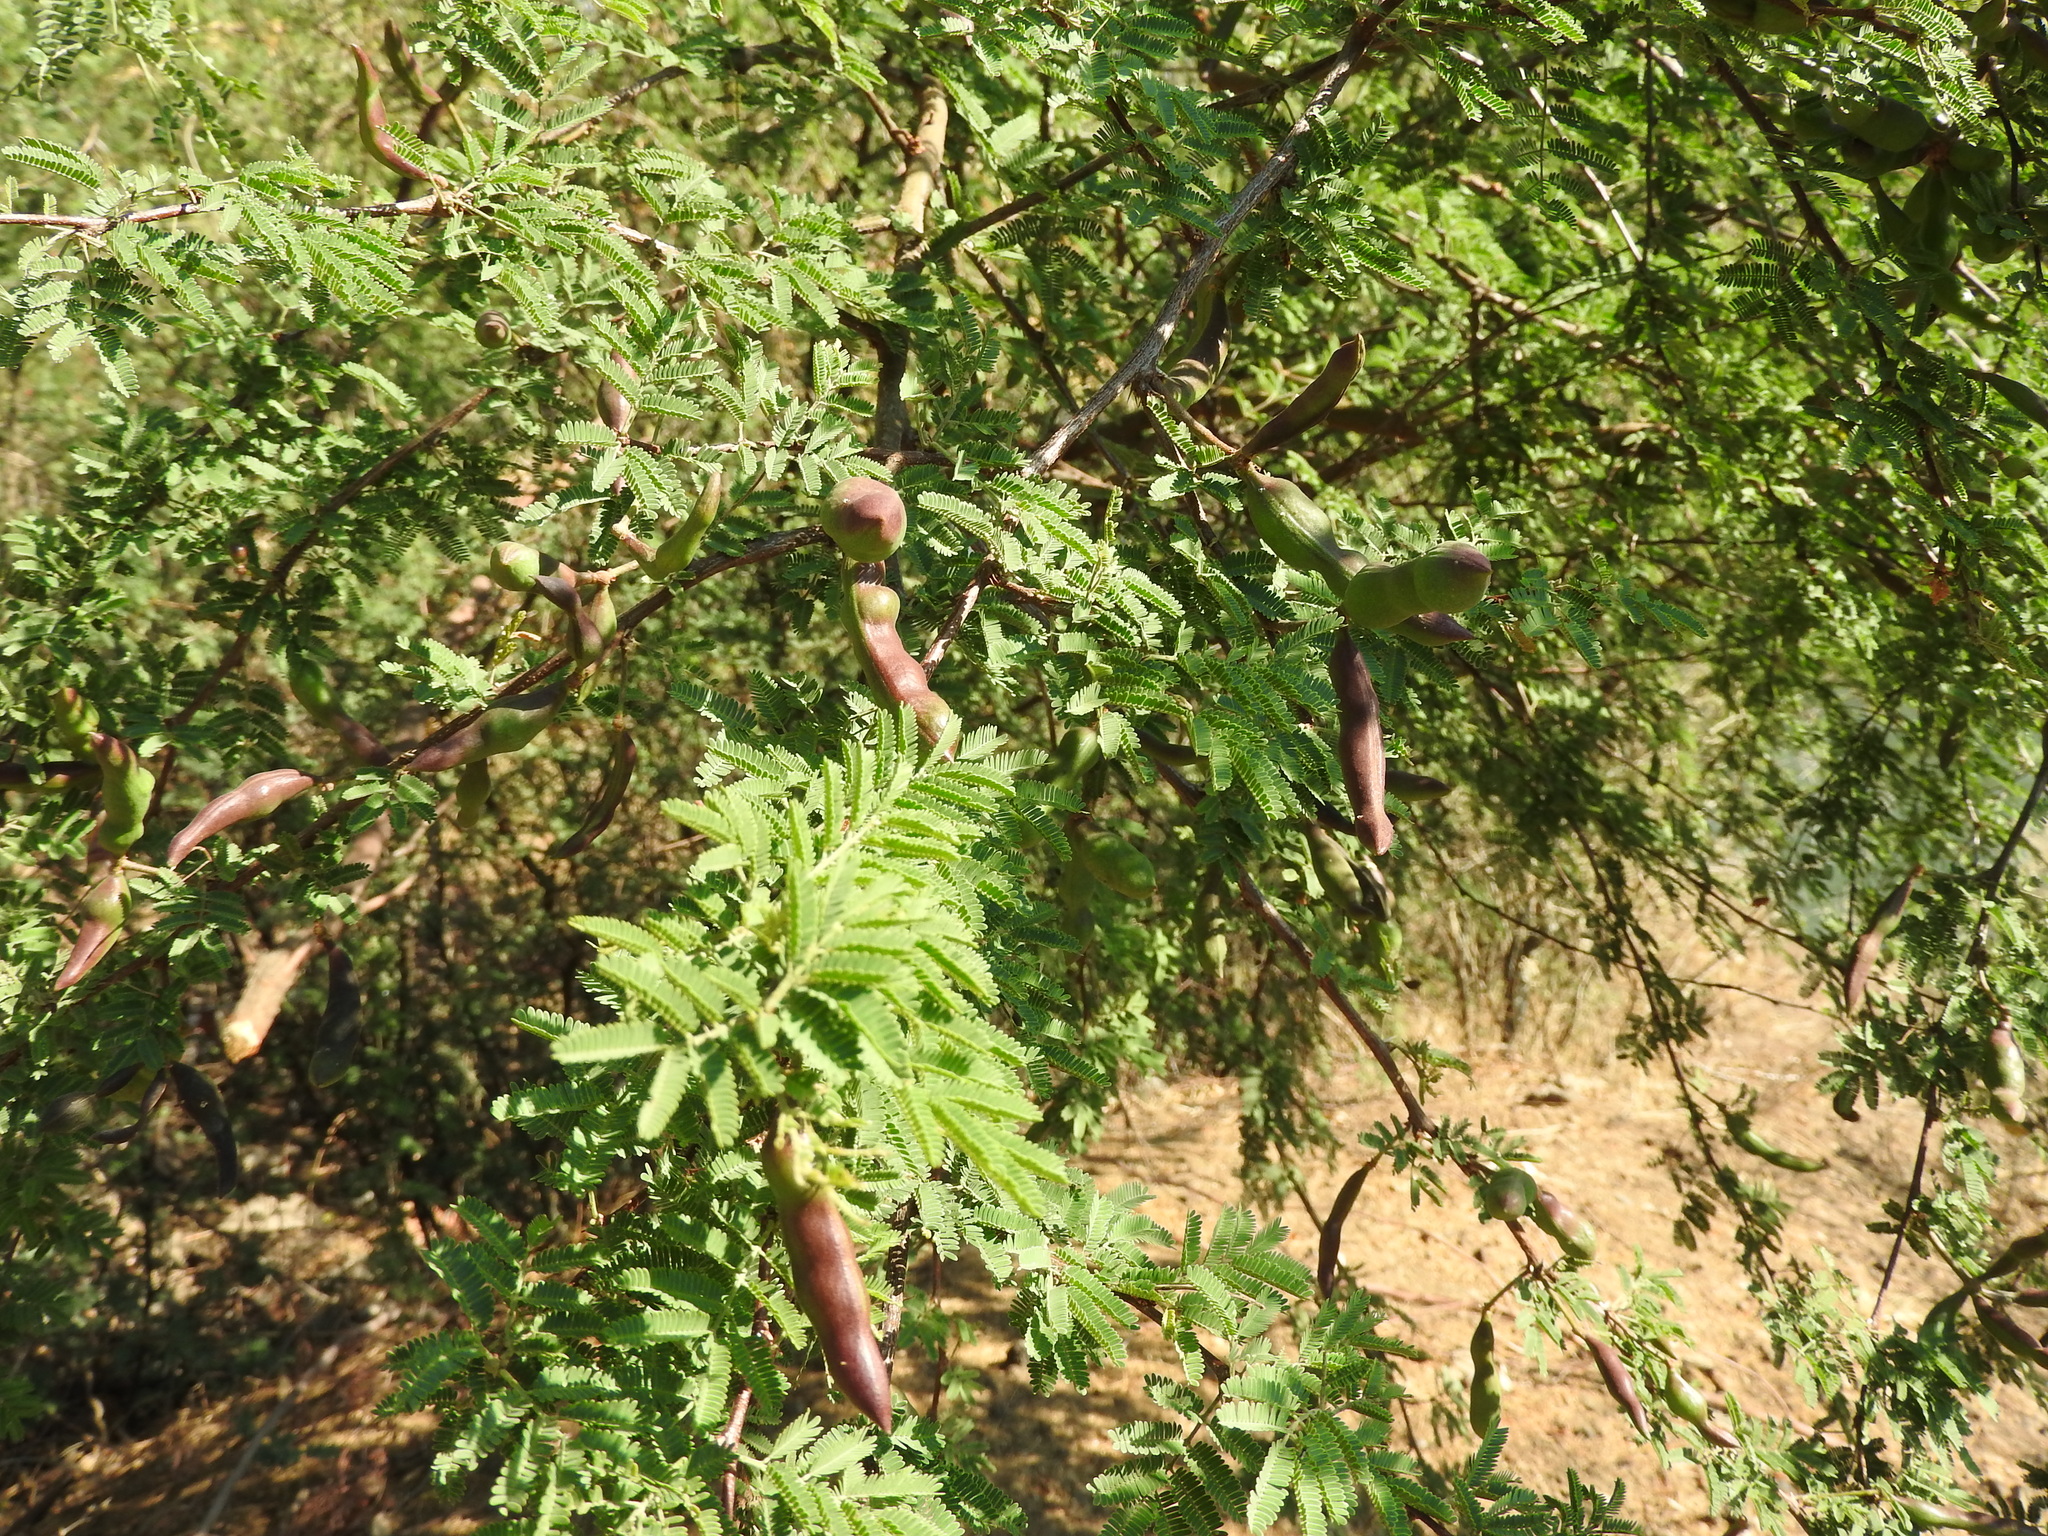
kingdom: Plantae
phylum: Tracheophyta
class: Magnoliopsida
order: Fabales
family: Fabaceae
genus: Vachellia
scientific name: Vachellia farnesiana
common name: Sweet acacia
